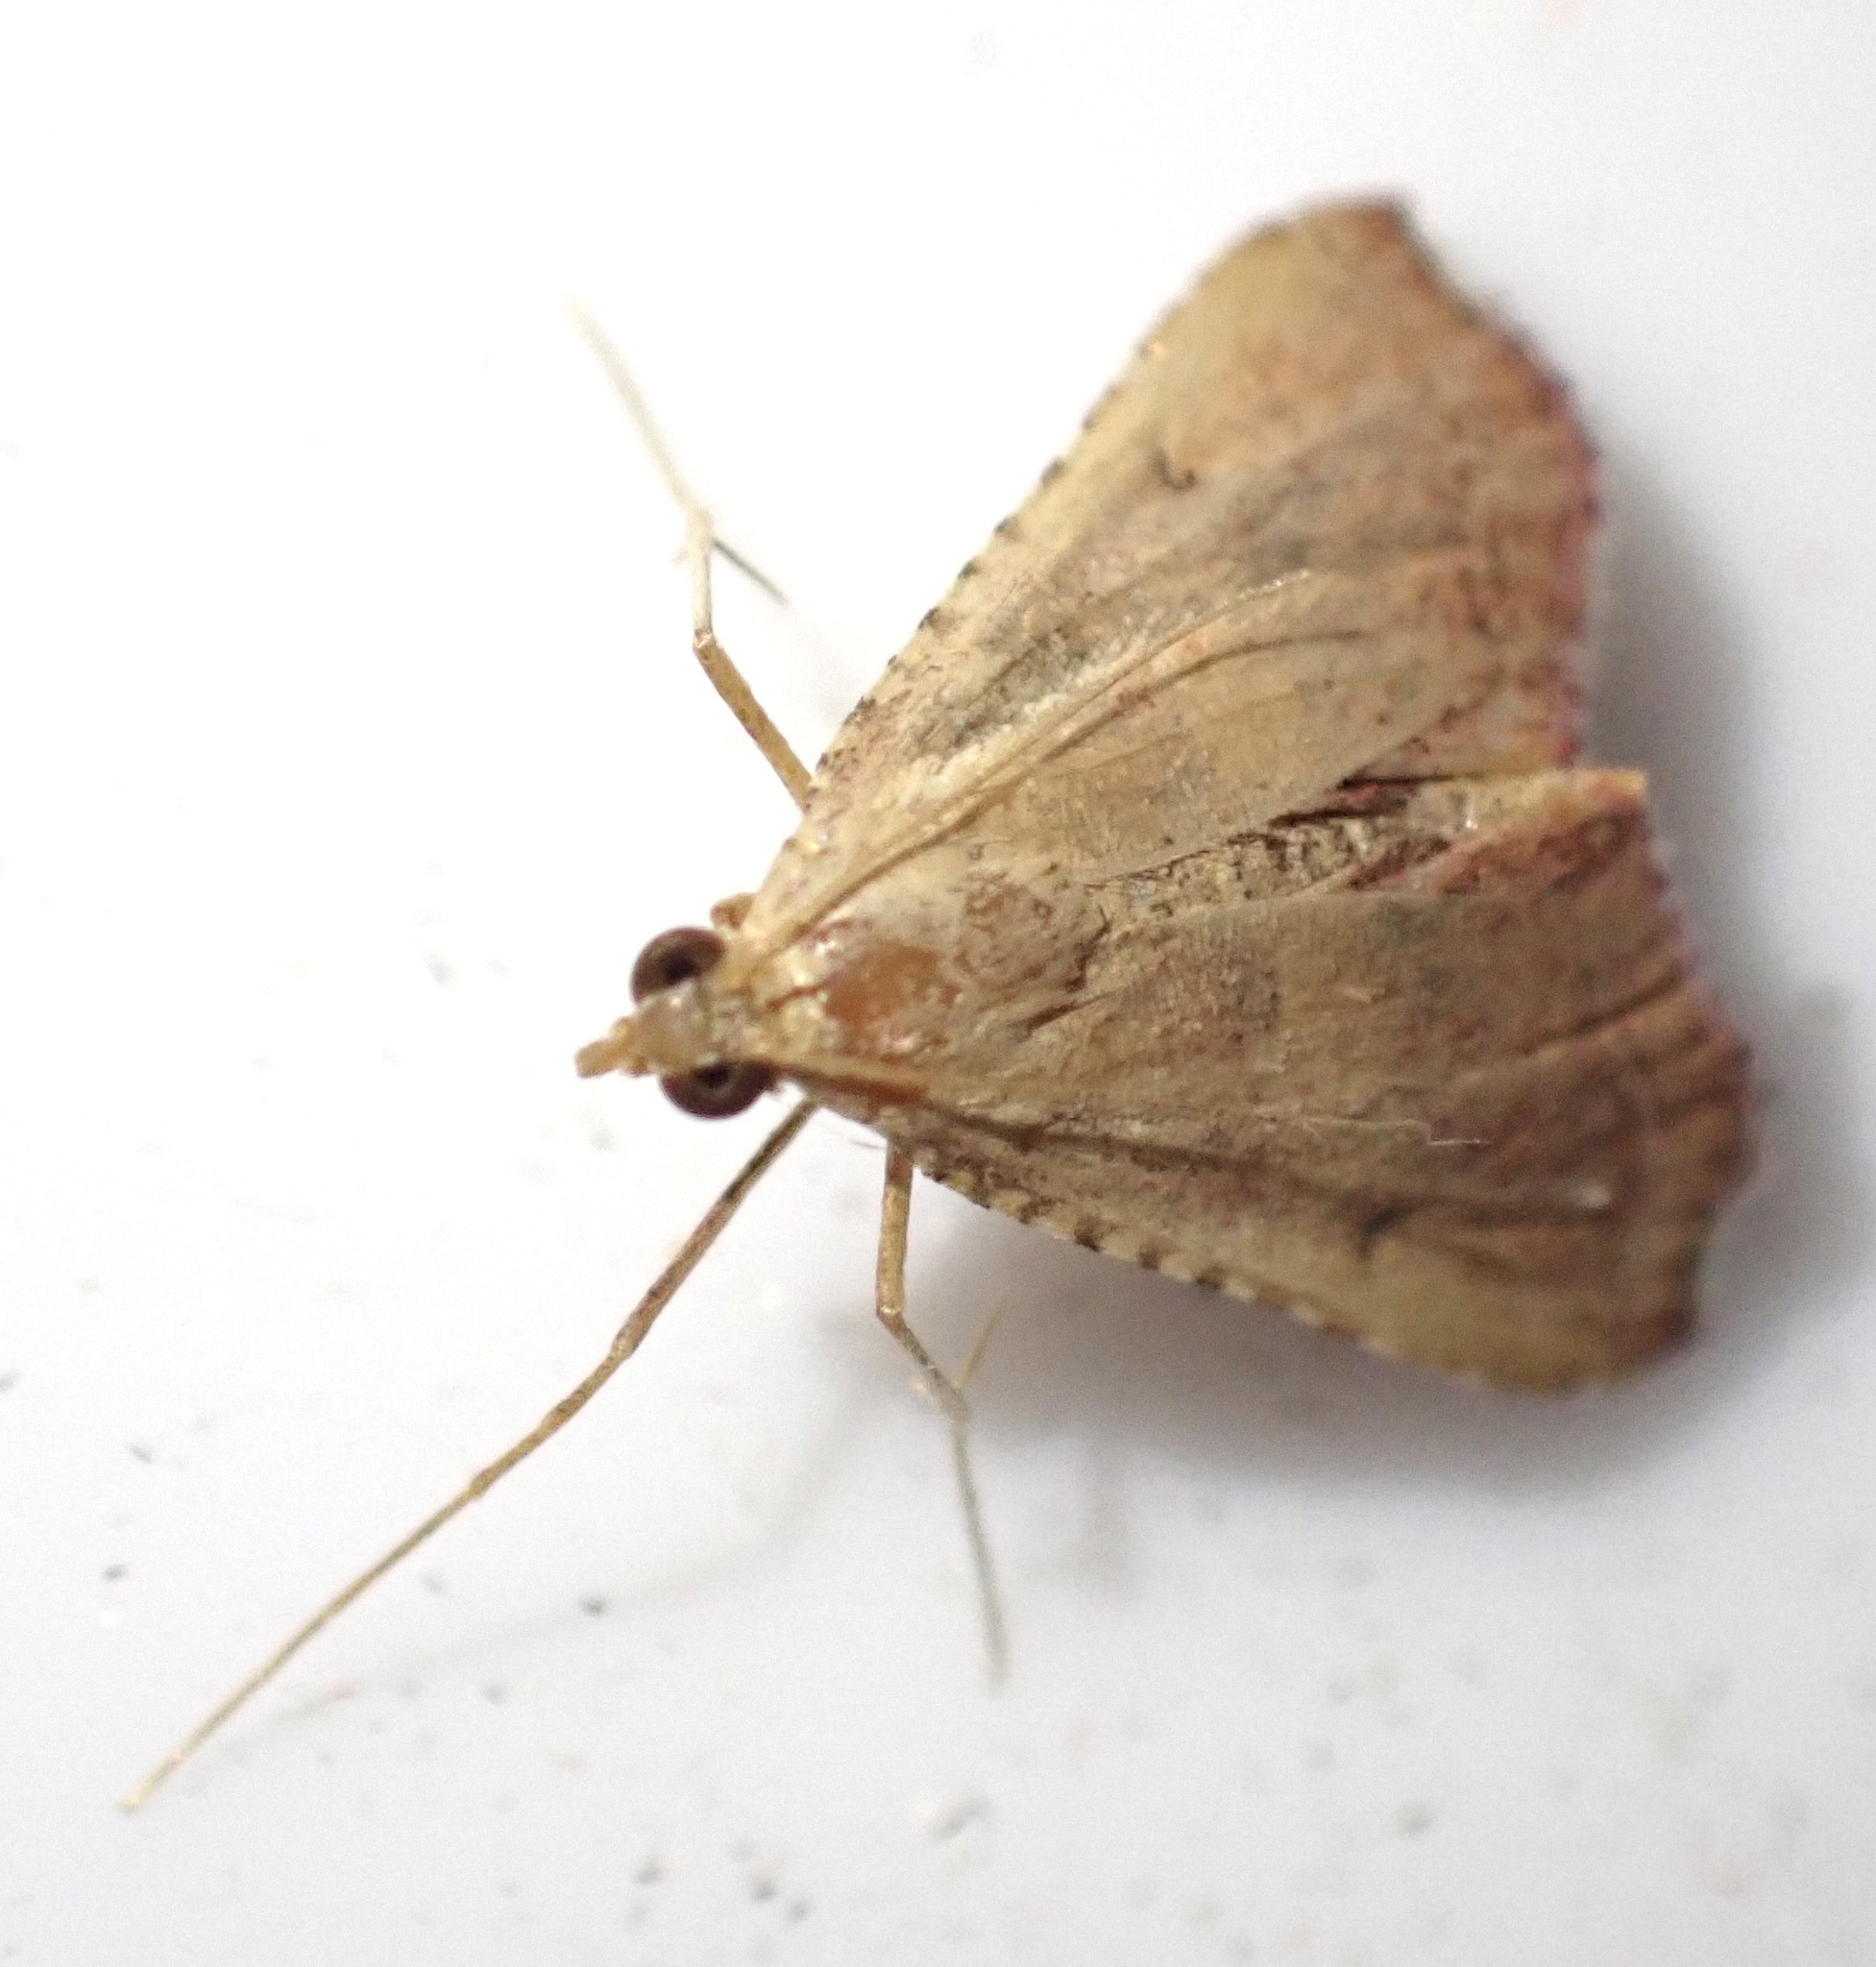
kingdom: Animalia
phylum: Arthropoda
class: Insecta
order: Lepidoptera
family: Pyralidae
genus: Endotricha
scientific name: Endotricha flammealis
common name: Rosy tabby
